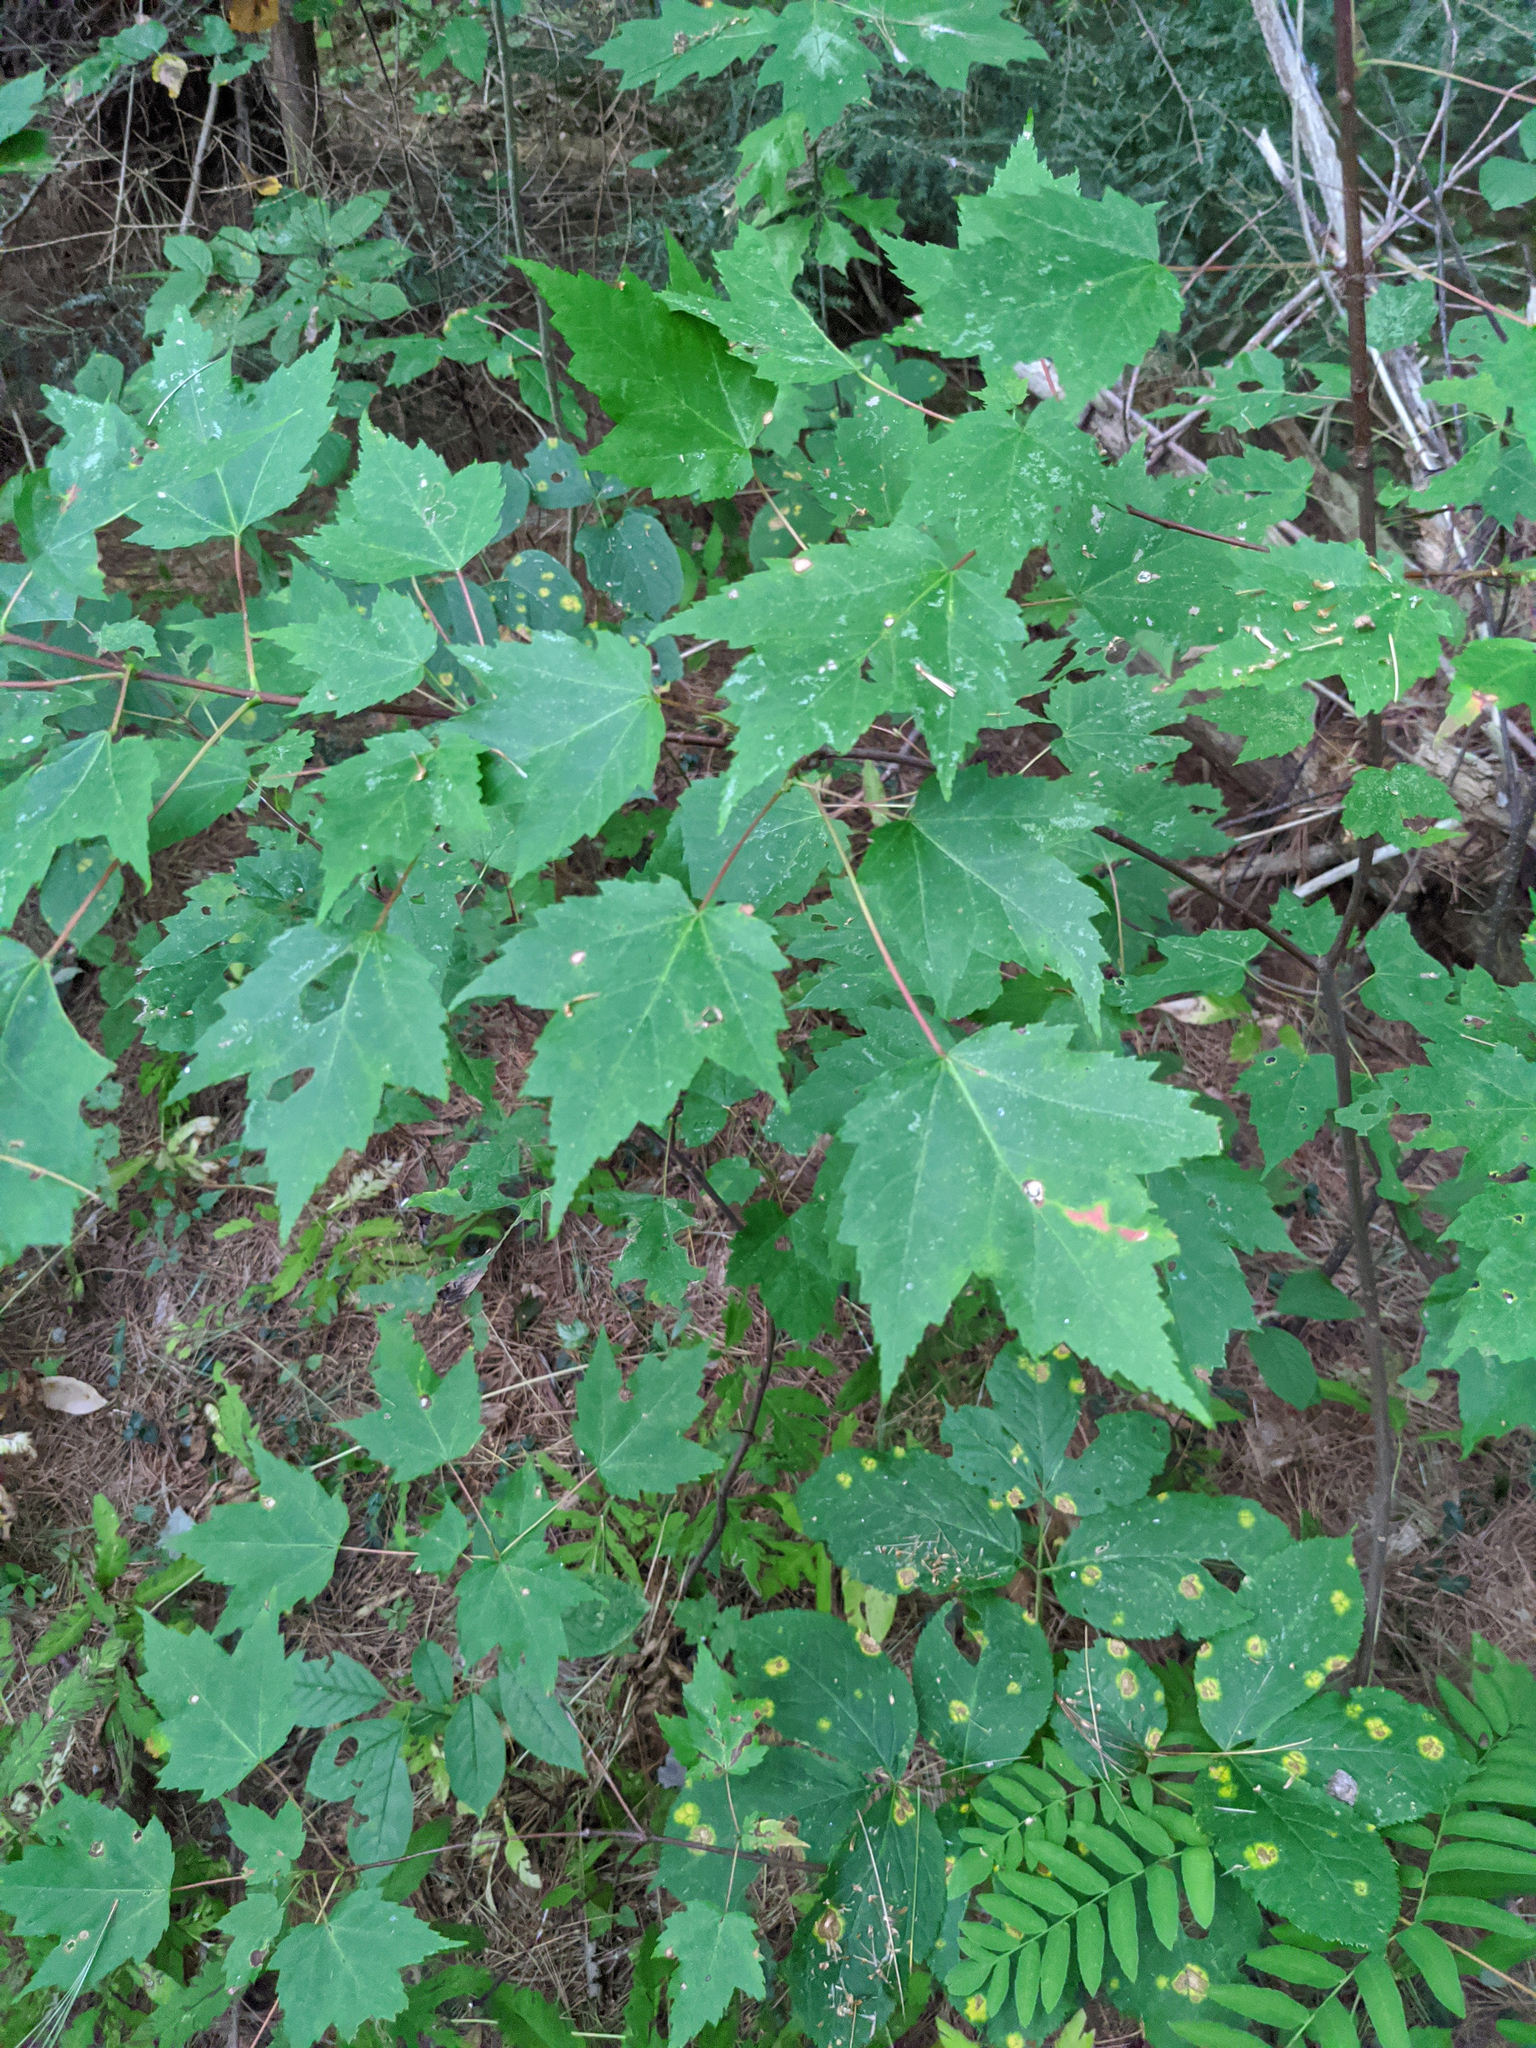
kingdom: Plantae
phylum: Tracheophyta
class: Magnoliopsida
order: Sapindales
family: Sapindaceae
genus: Acer
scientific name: Acer rubrum
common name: Red maple
